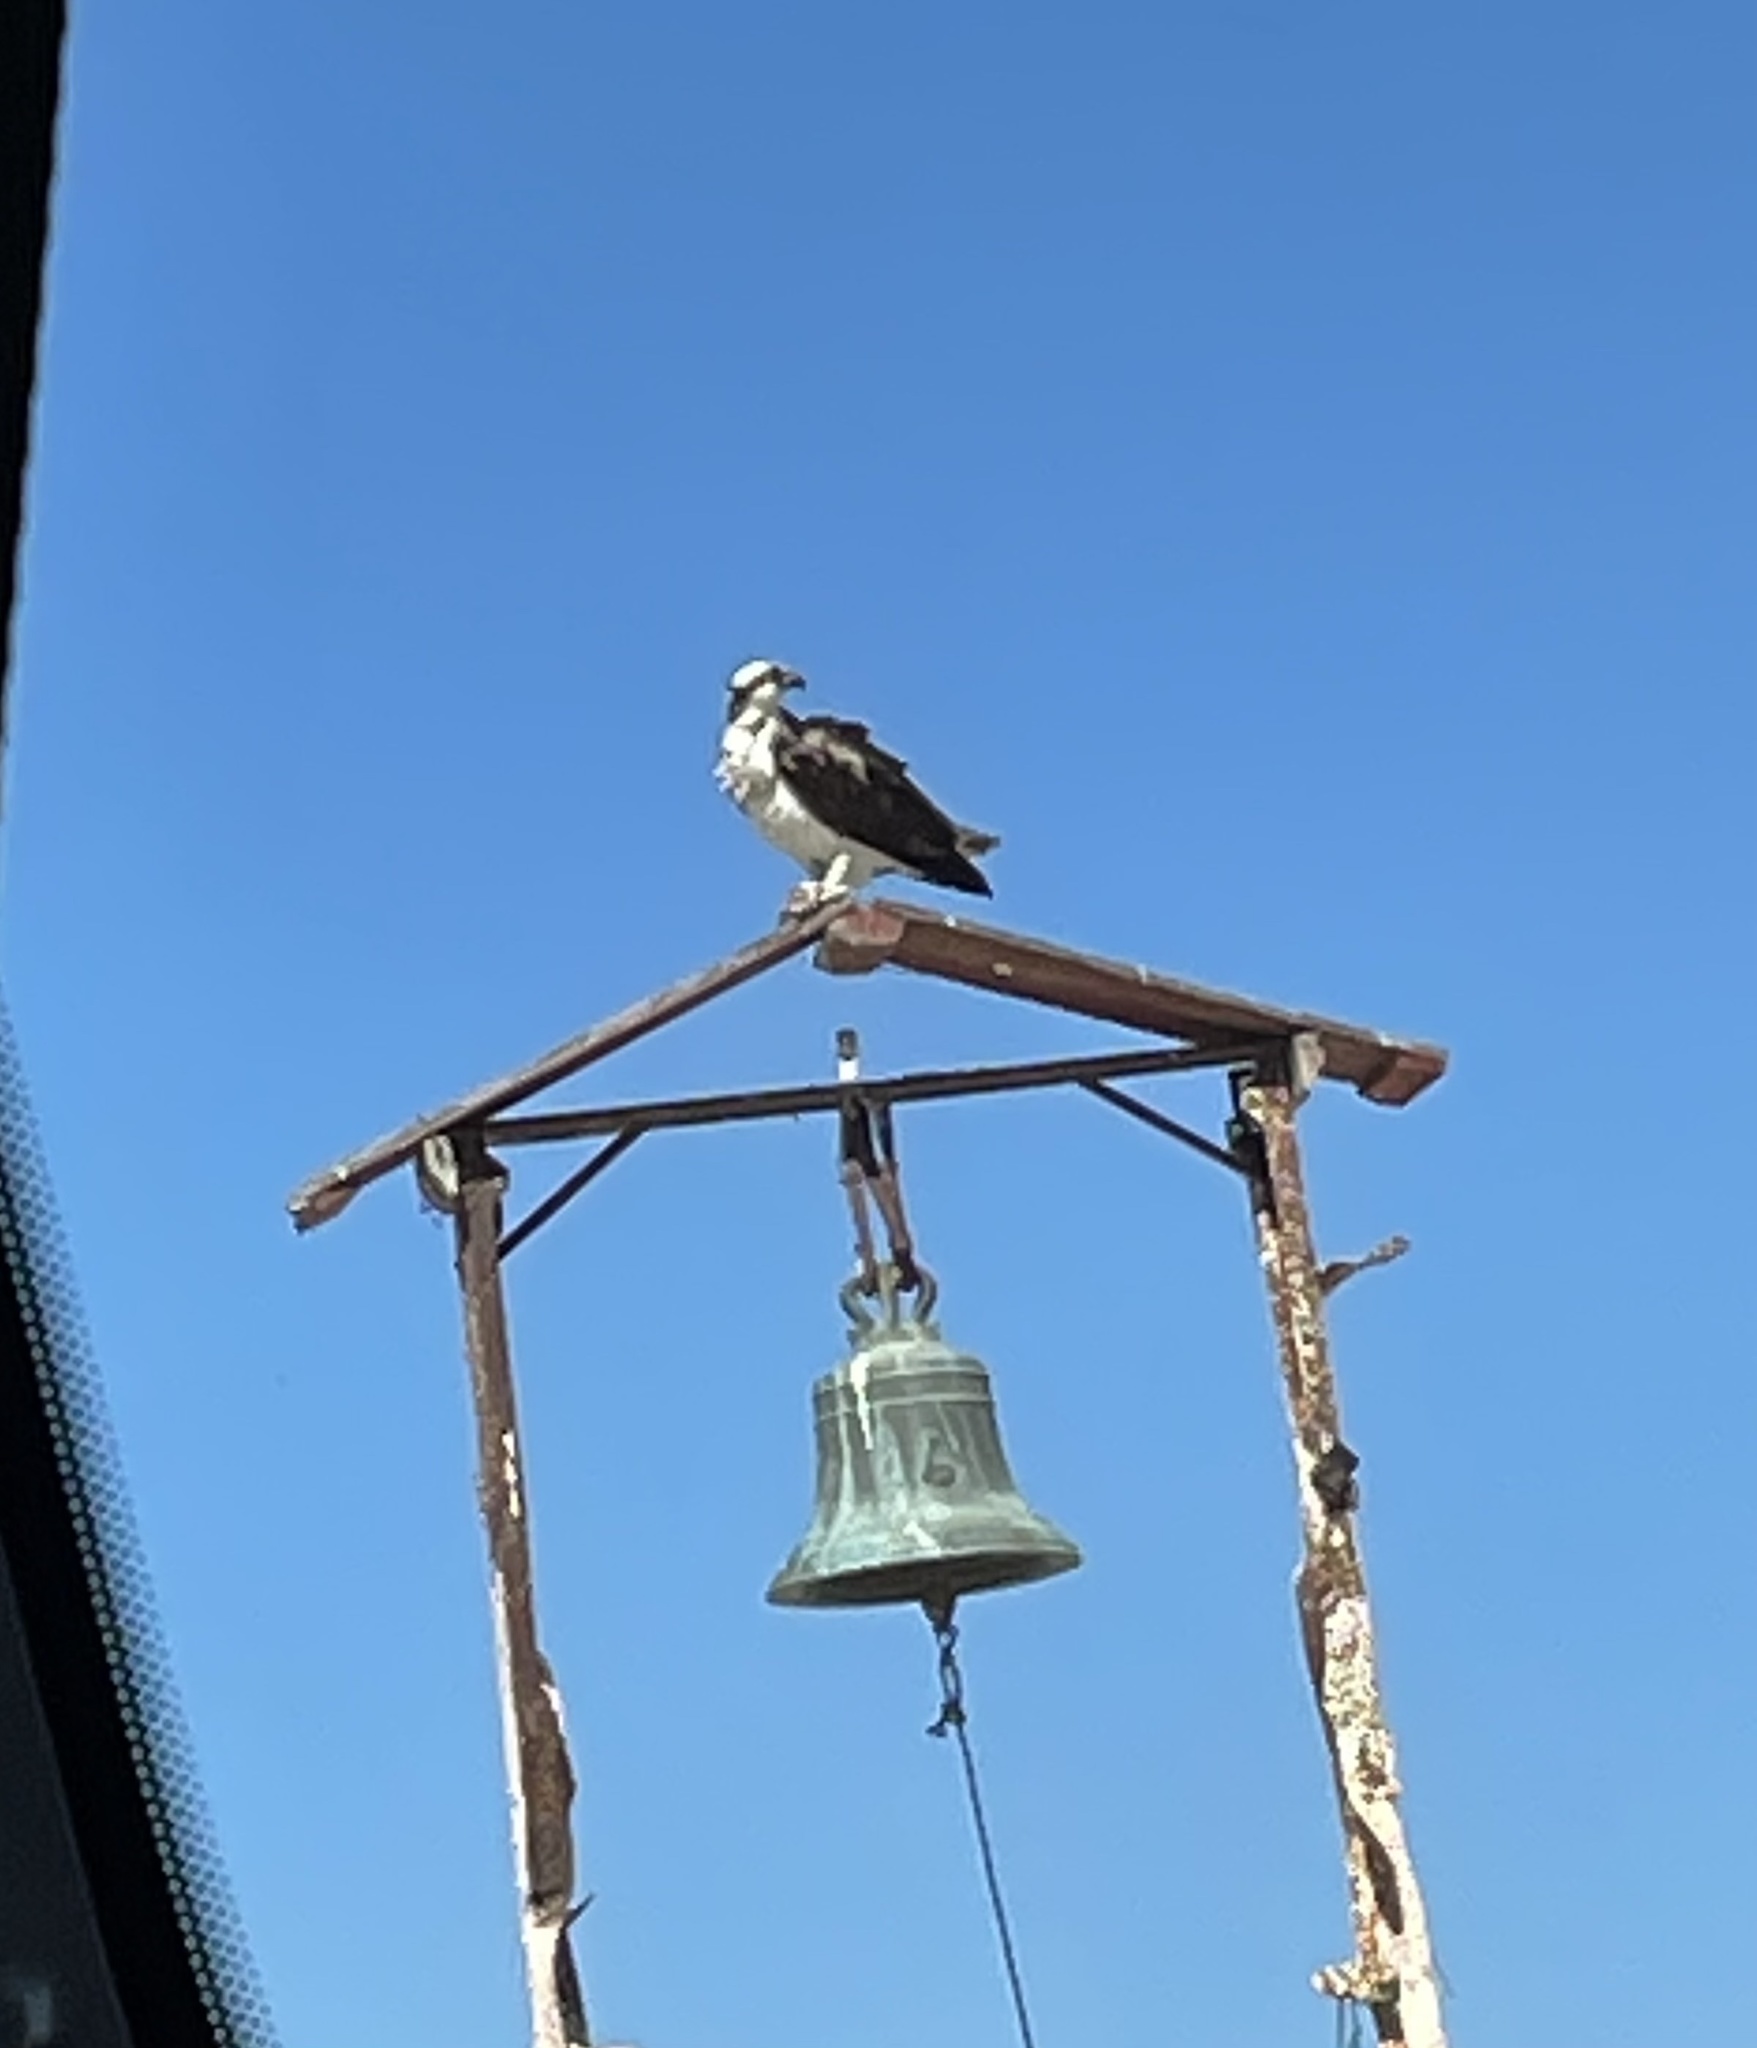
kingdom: Animalia
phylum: Chordata
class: Aves
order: Accipitriformes
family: Pandionidae
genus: Pandion
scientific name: Pandion haliaetus
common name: Osprey
